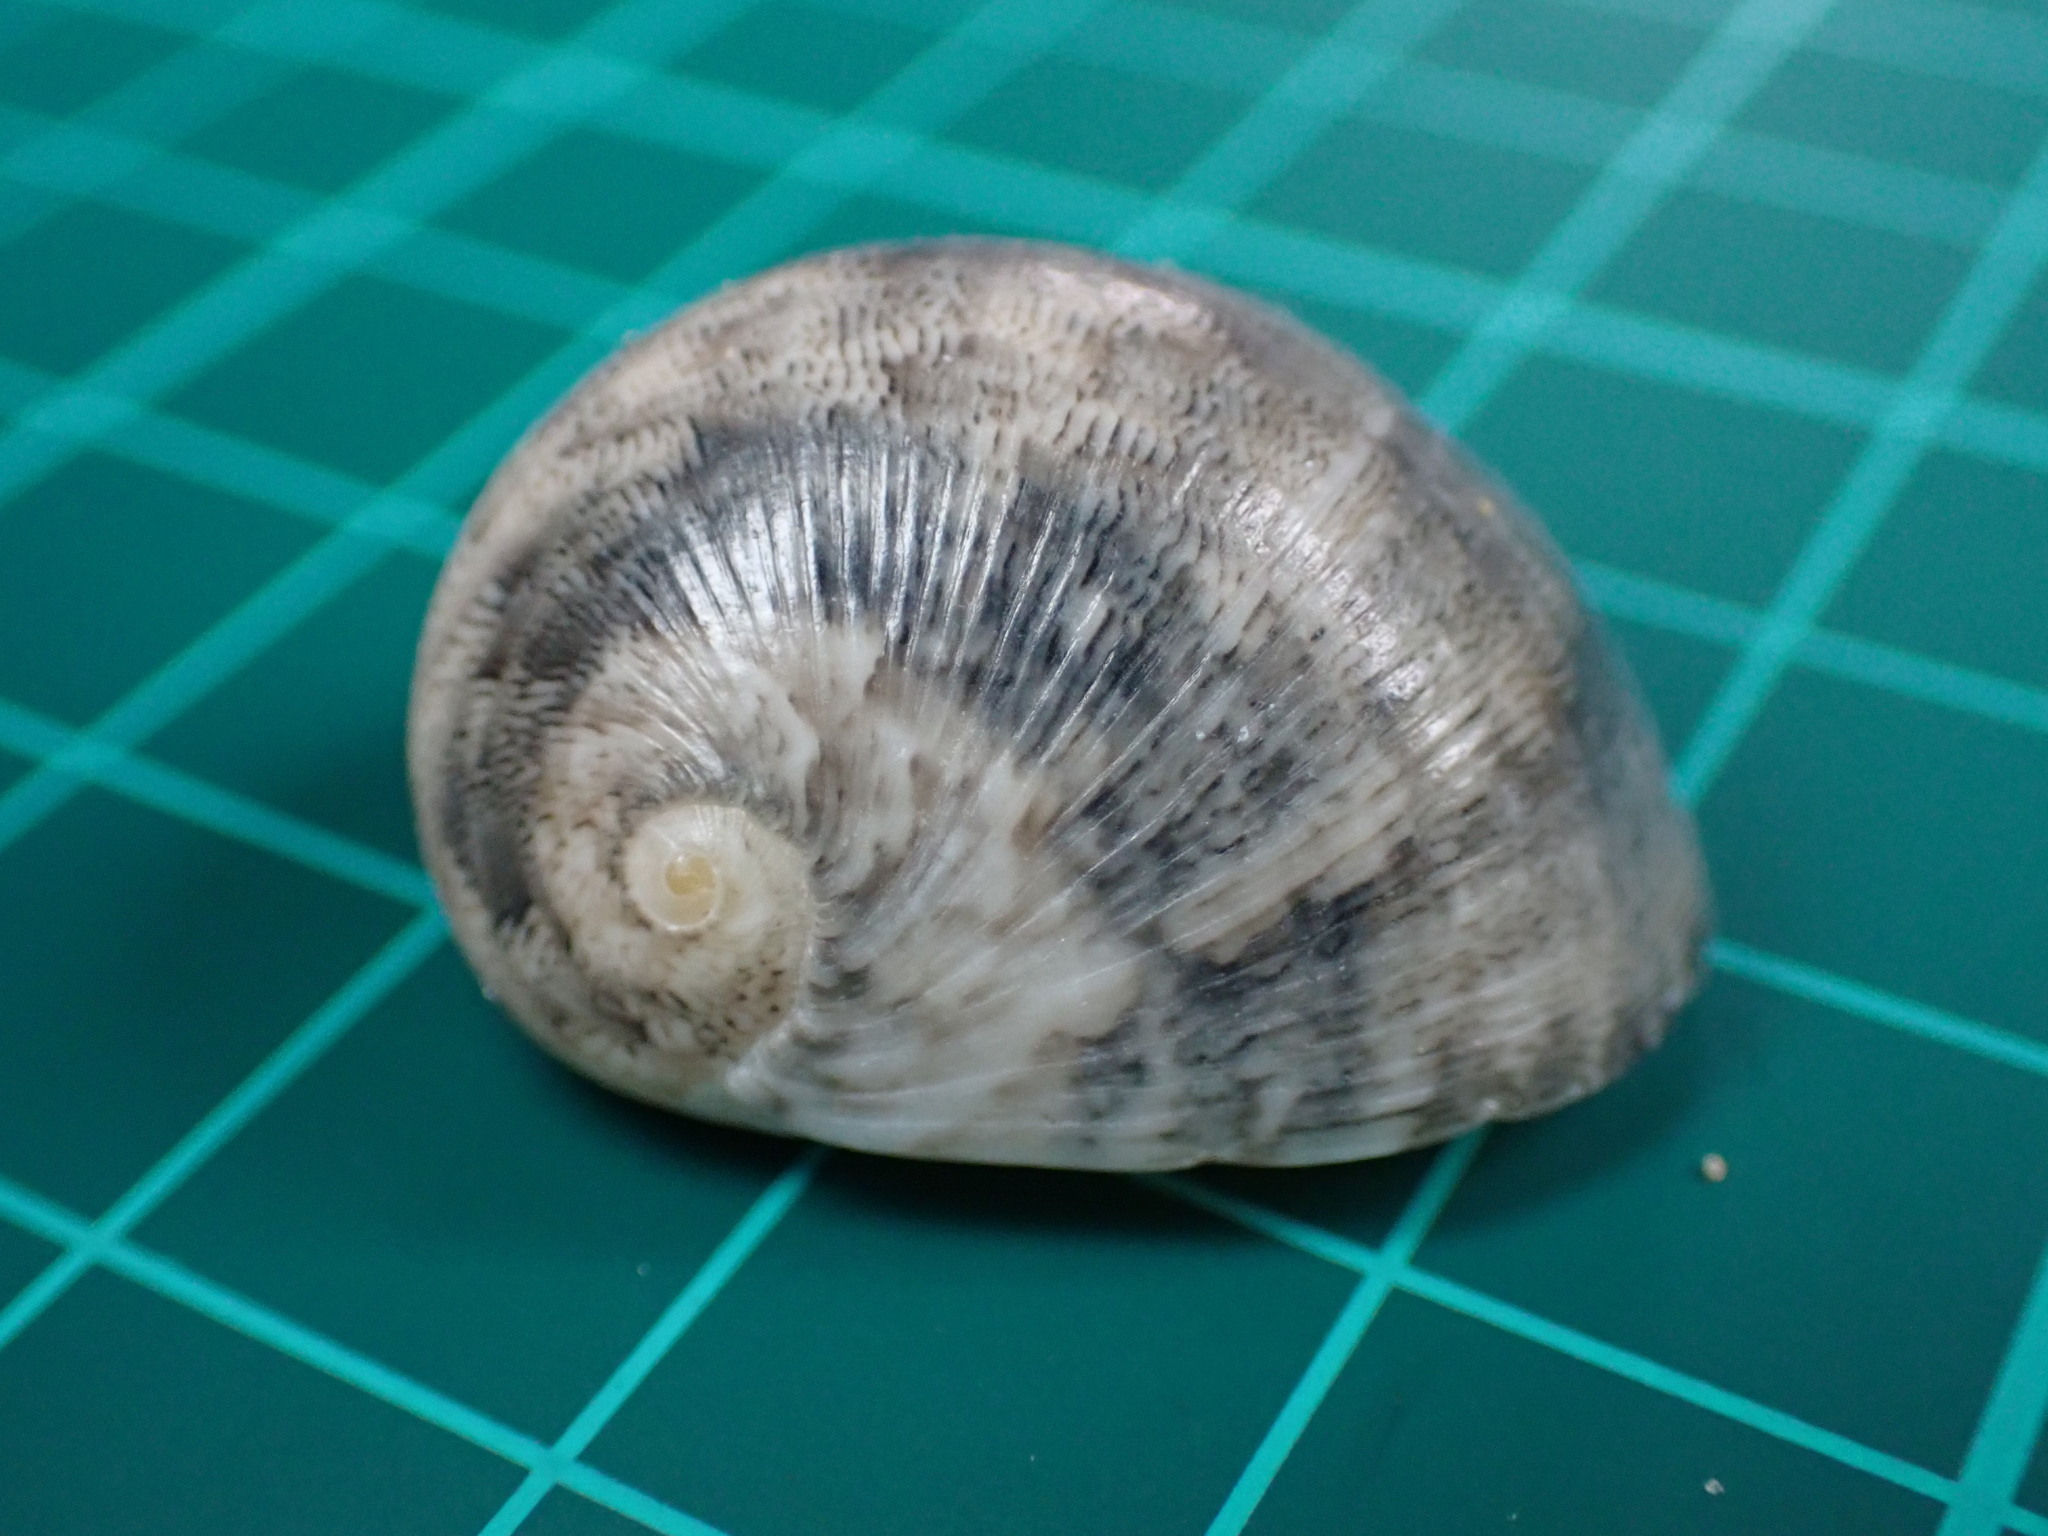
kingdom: Animalia
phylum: Mollusca
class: Gastropoda
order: Cycloneritida
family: Neritidae
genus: Nerita
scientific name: Nerita polita
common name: Polished nerite
